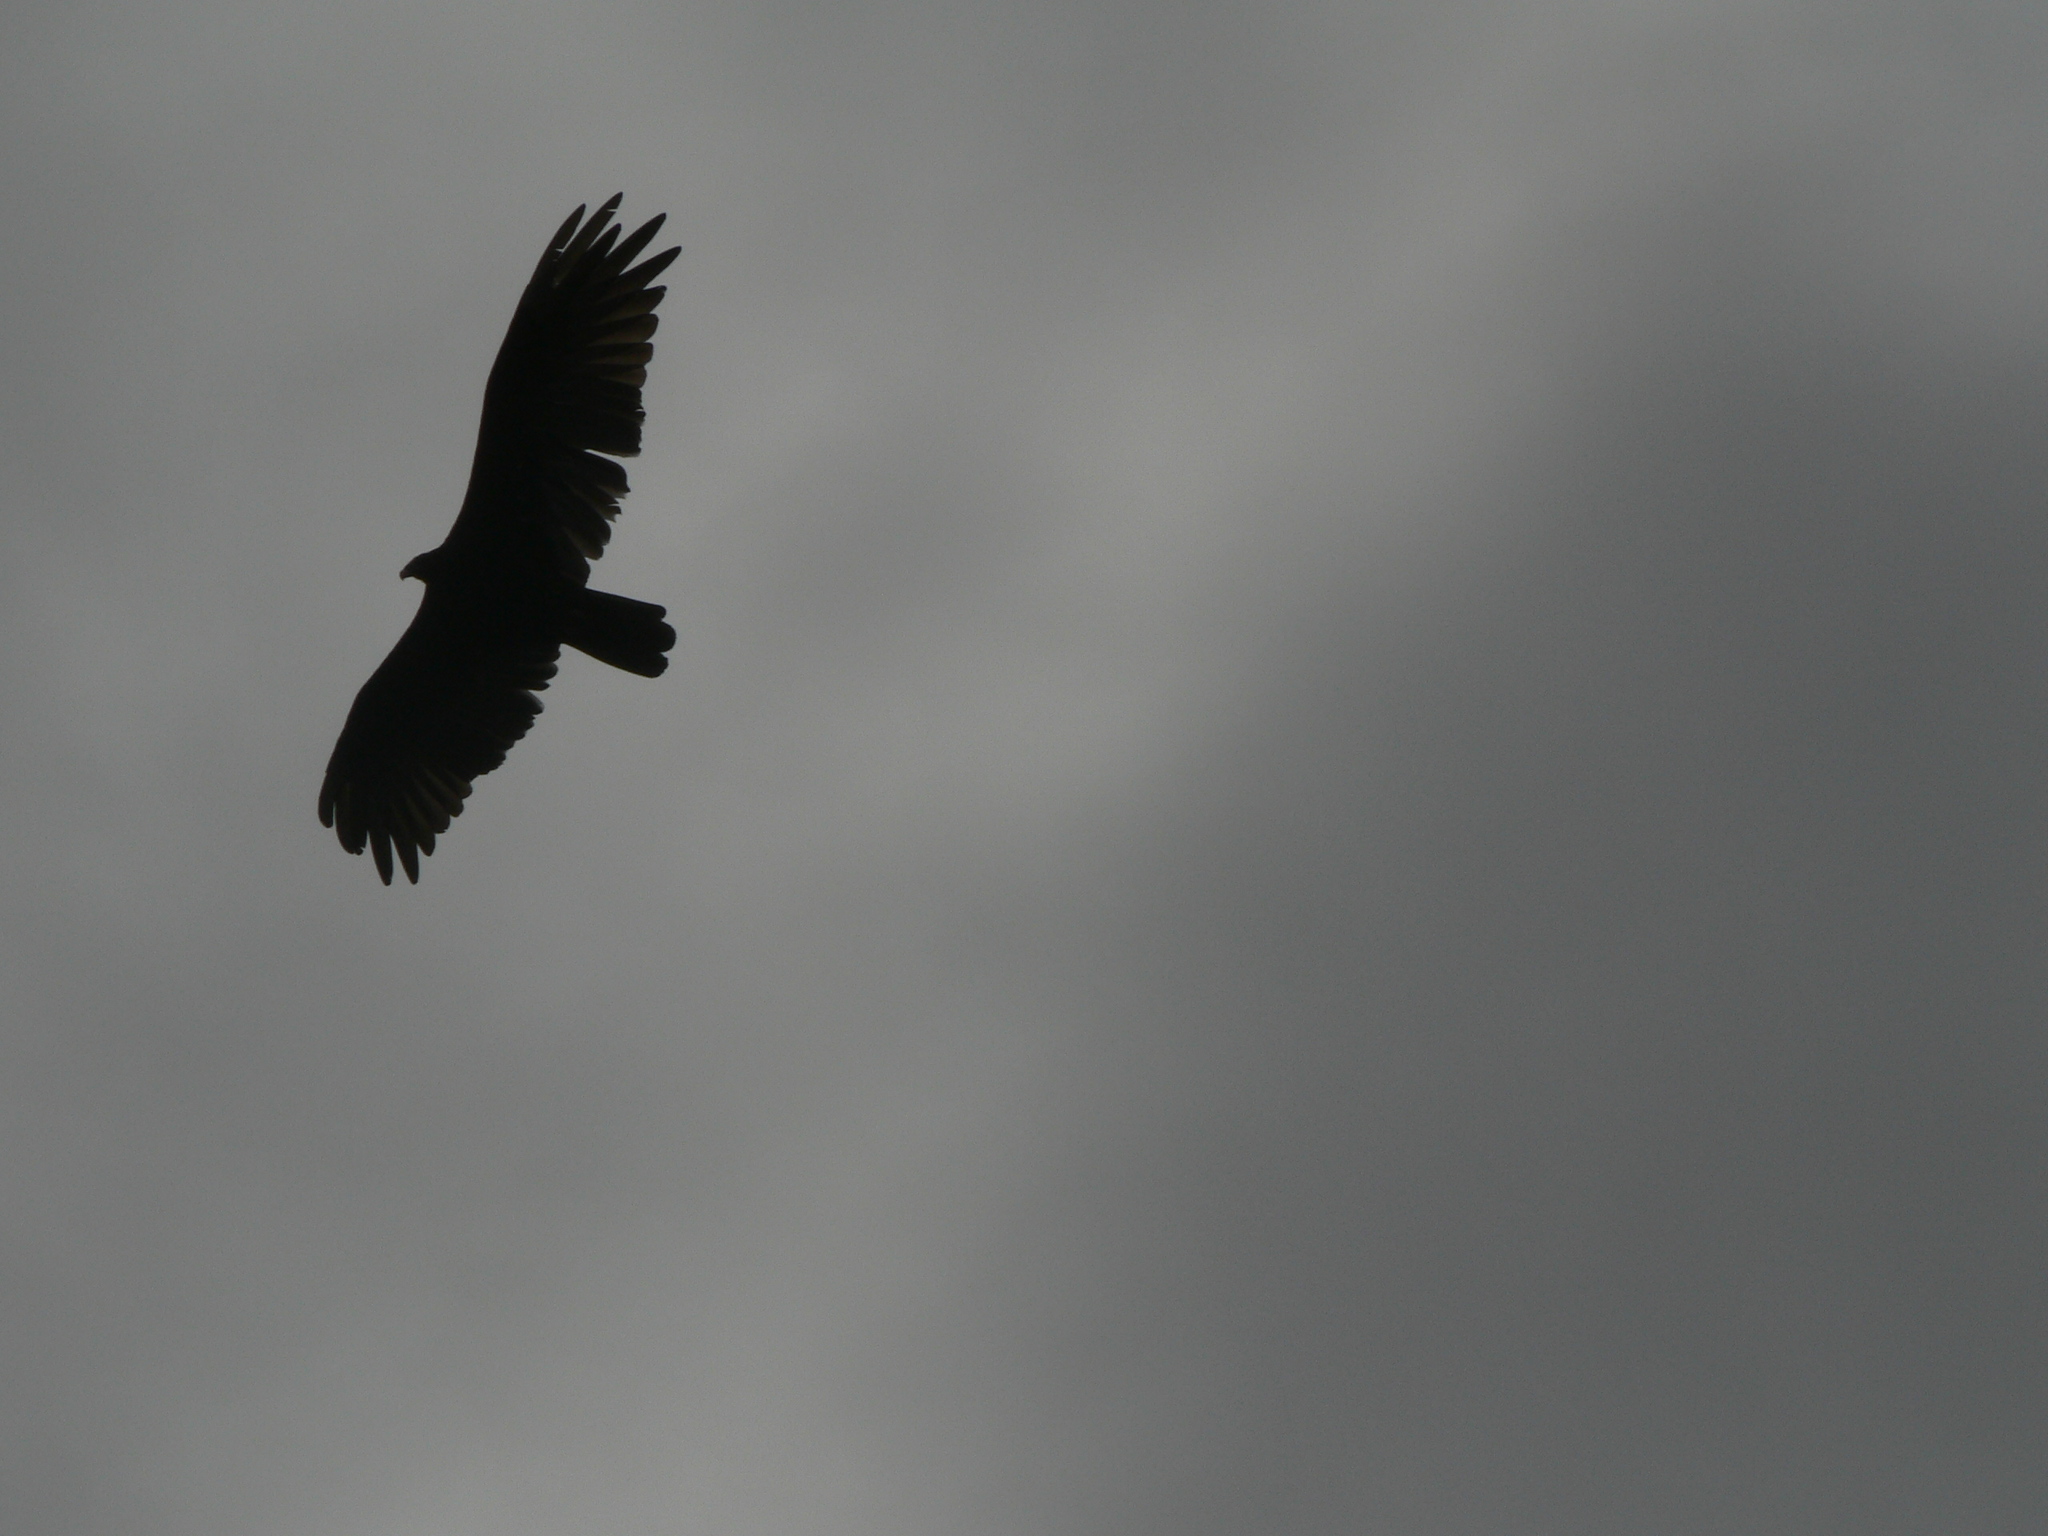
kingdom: Animalia
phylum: Chordata
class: Aves
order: Accipitriformes
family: Cathartidae
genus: Cathartes
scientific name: Cathartes aura
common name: Turkey vulture
